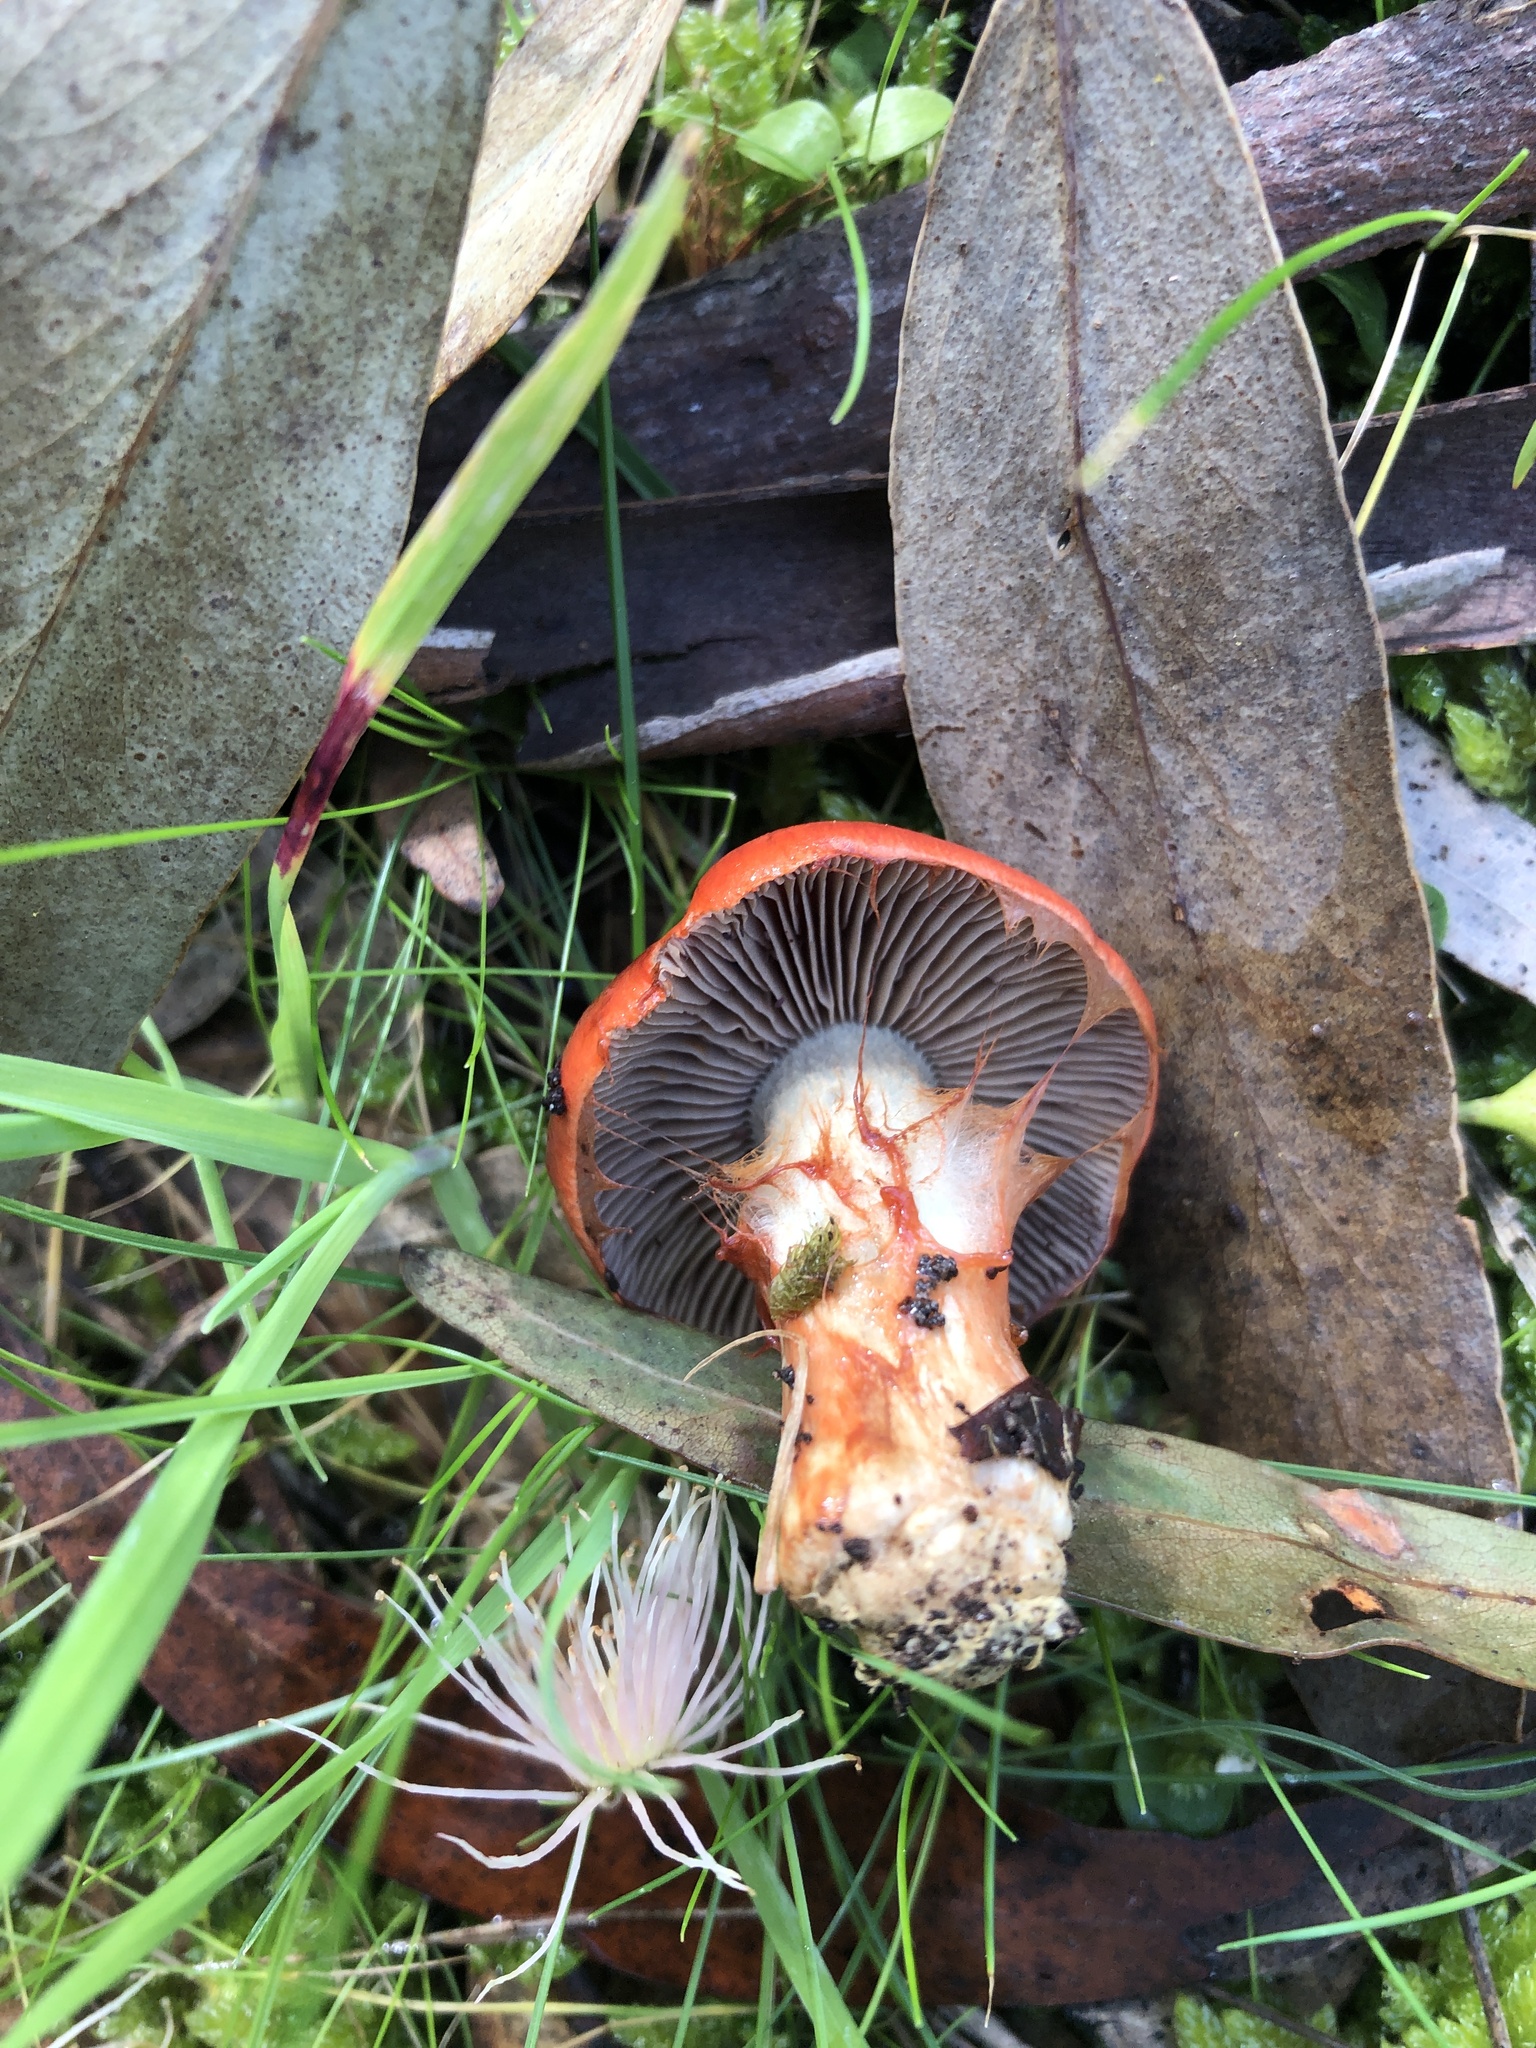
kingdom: Fungi
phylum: Basidiomycota
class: Agaricomycetes
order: Agaricales
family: Cortinariaceae
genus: Cortinarius
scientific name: Cortinarius suberythraeus
